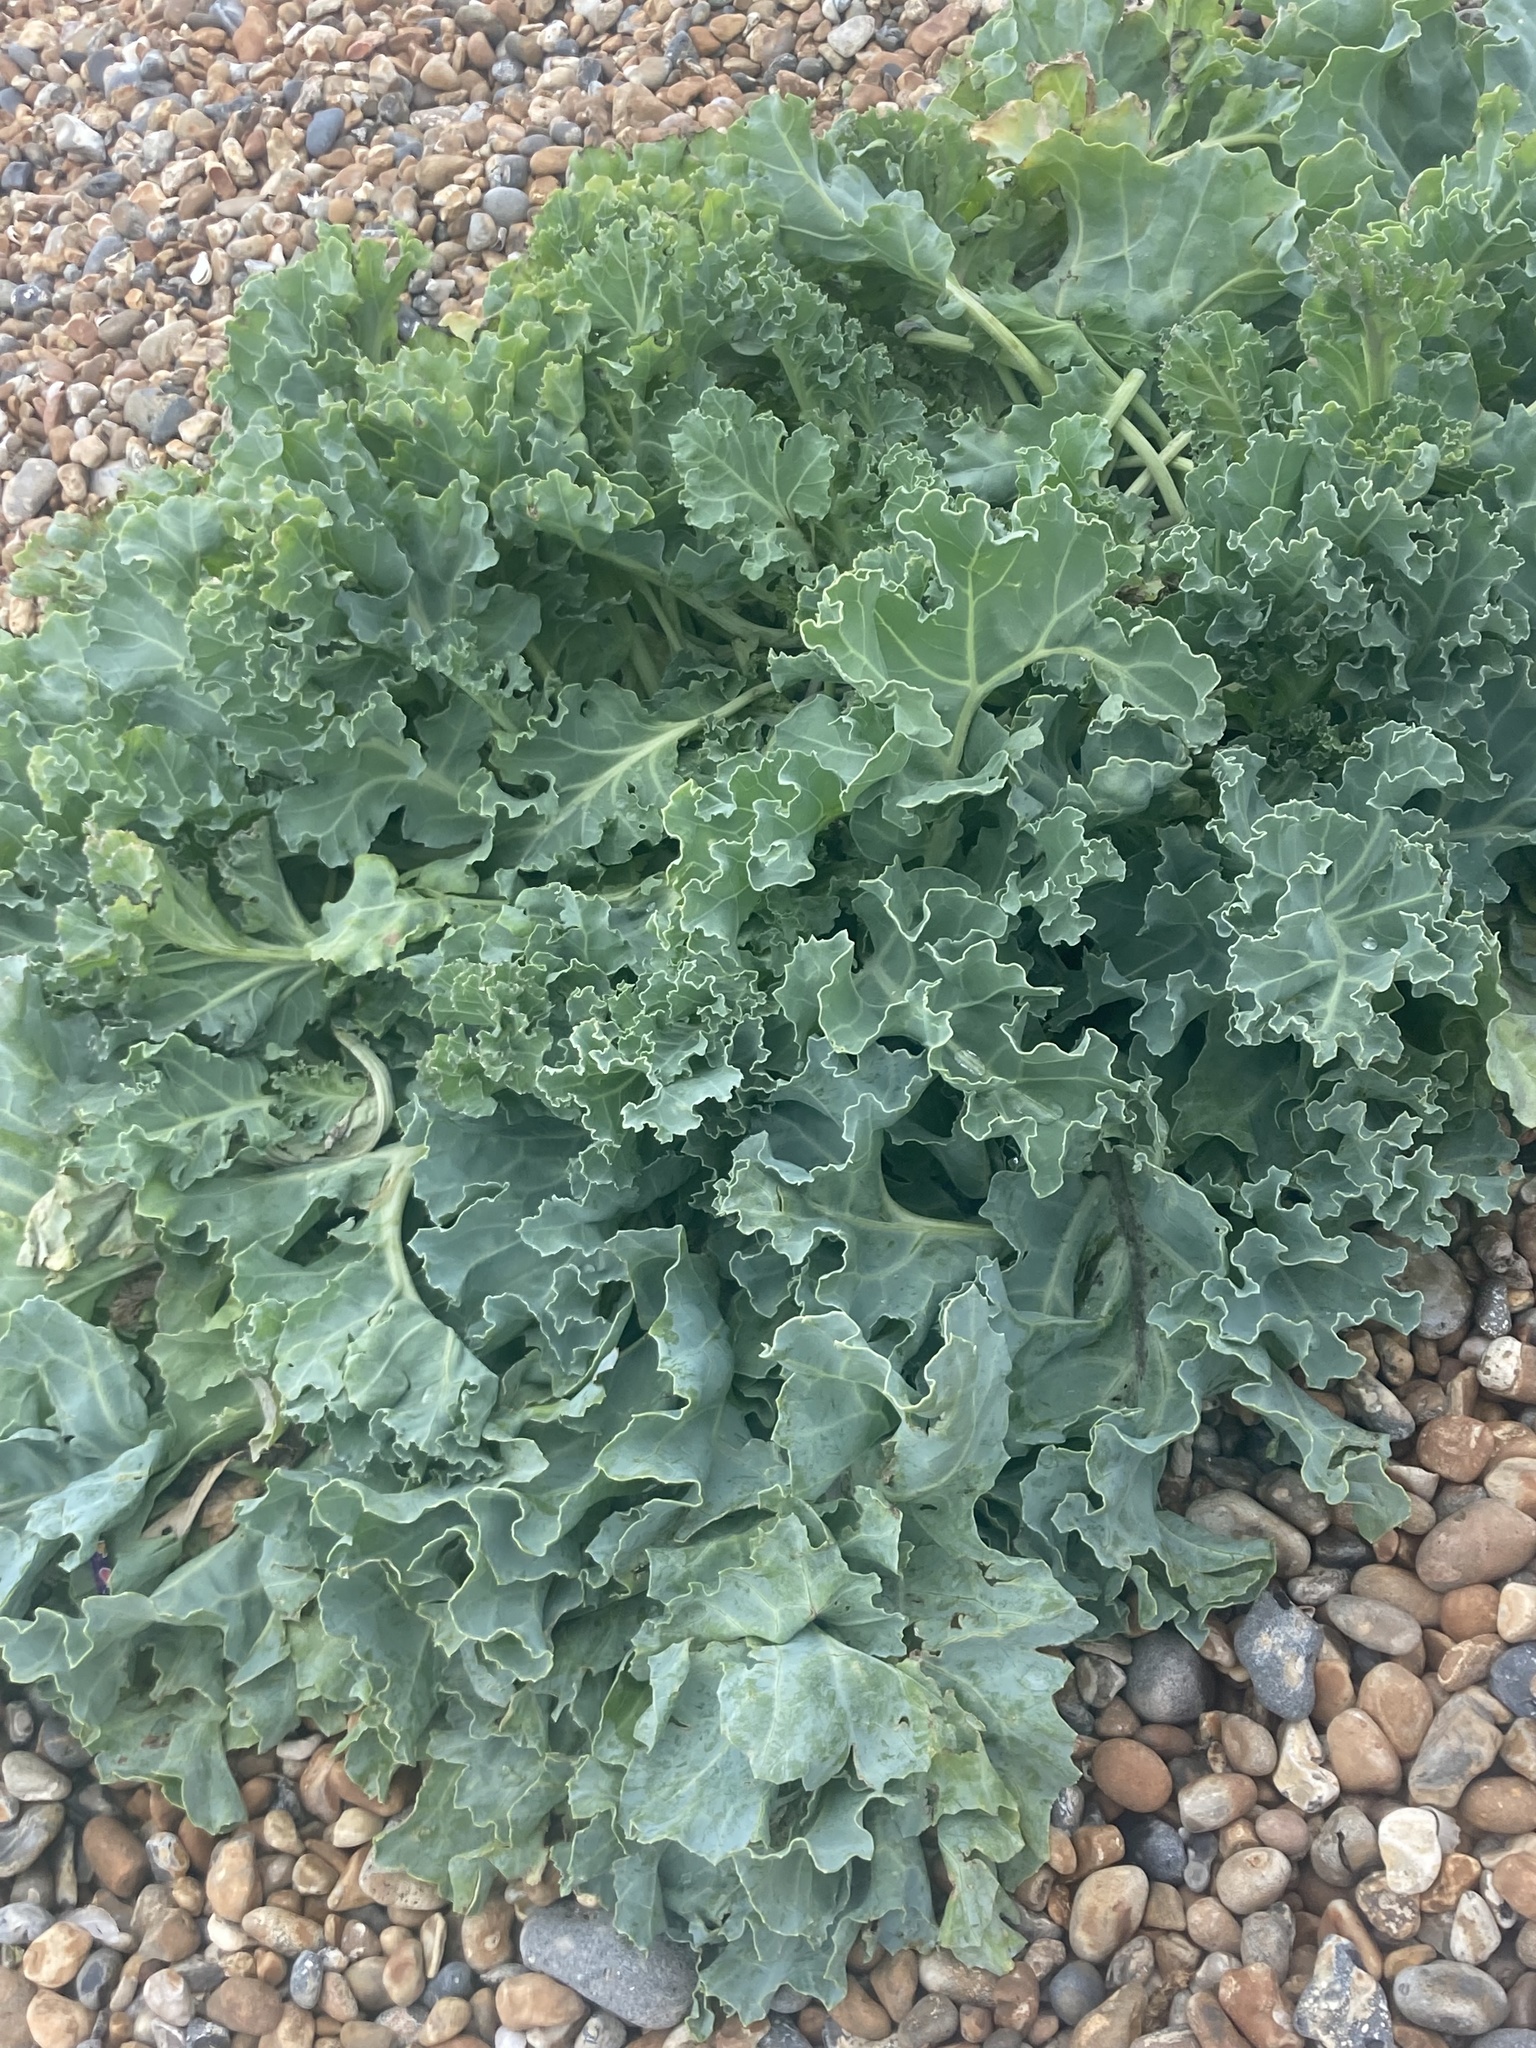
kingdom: Plantae
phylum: Tracheophyta
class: Magnoliopsida
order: Brassicales
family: Brassicaceae
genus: Crambe
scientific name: Crambe maritima
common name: Sea-kale
